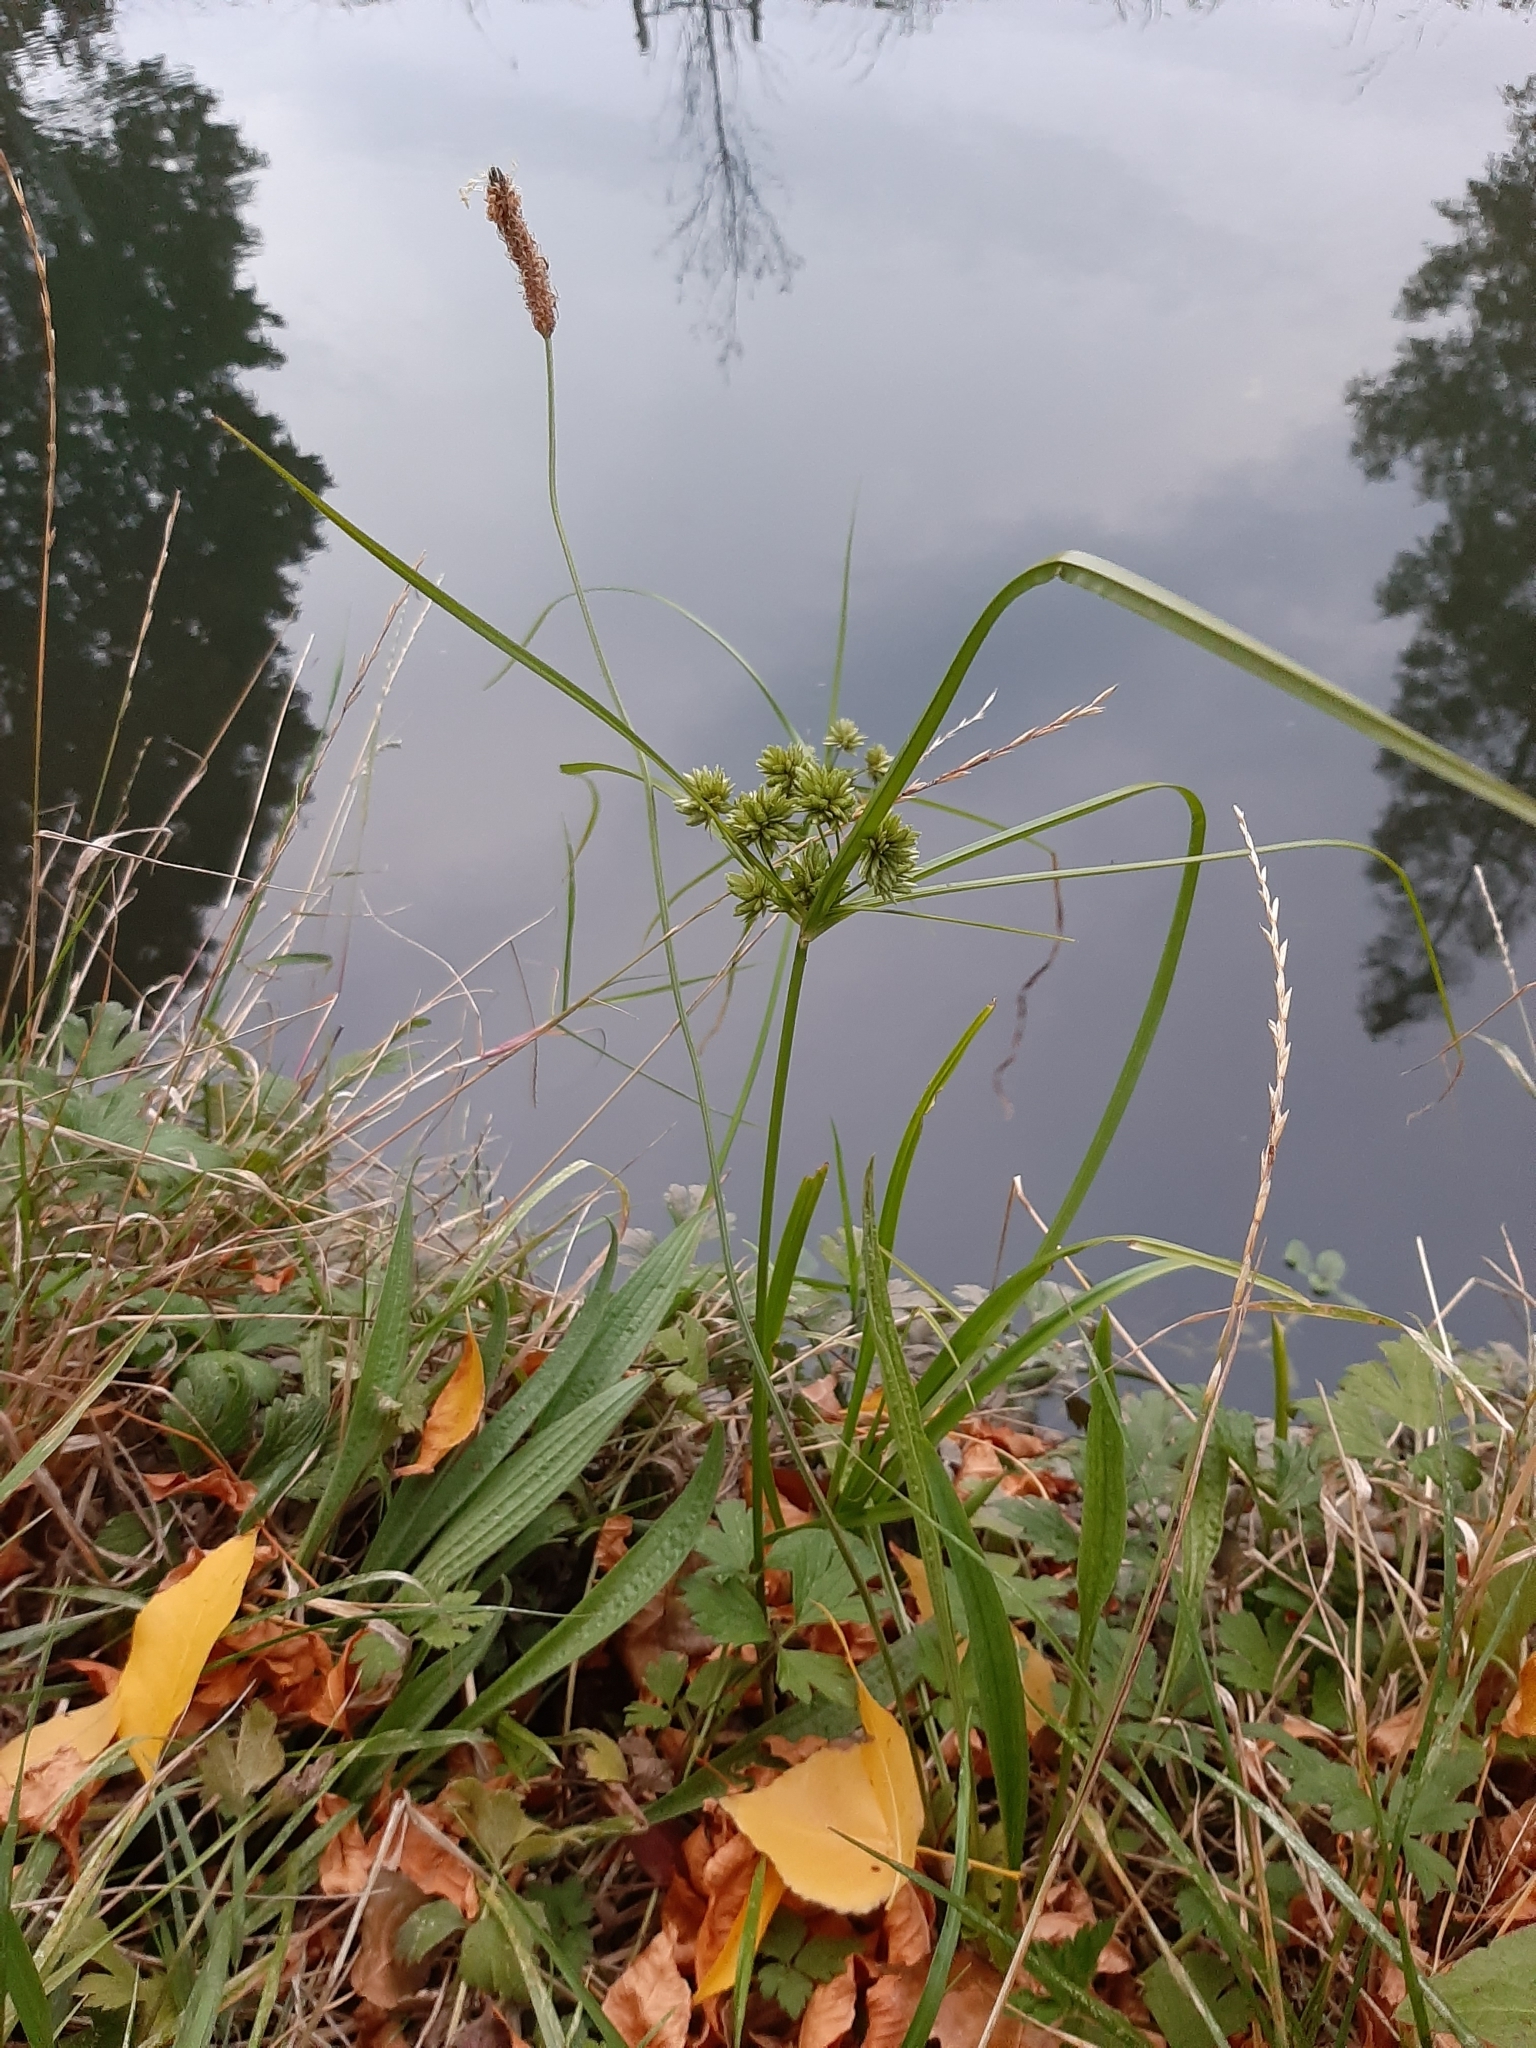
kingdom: Plantae
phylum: Tracheophyta
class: Liliopsida
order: Poales
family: Cyperaceae
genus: Cyperus
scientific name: Cyperus eragrostis
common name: Tall flatsedge
